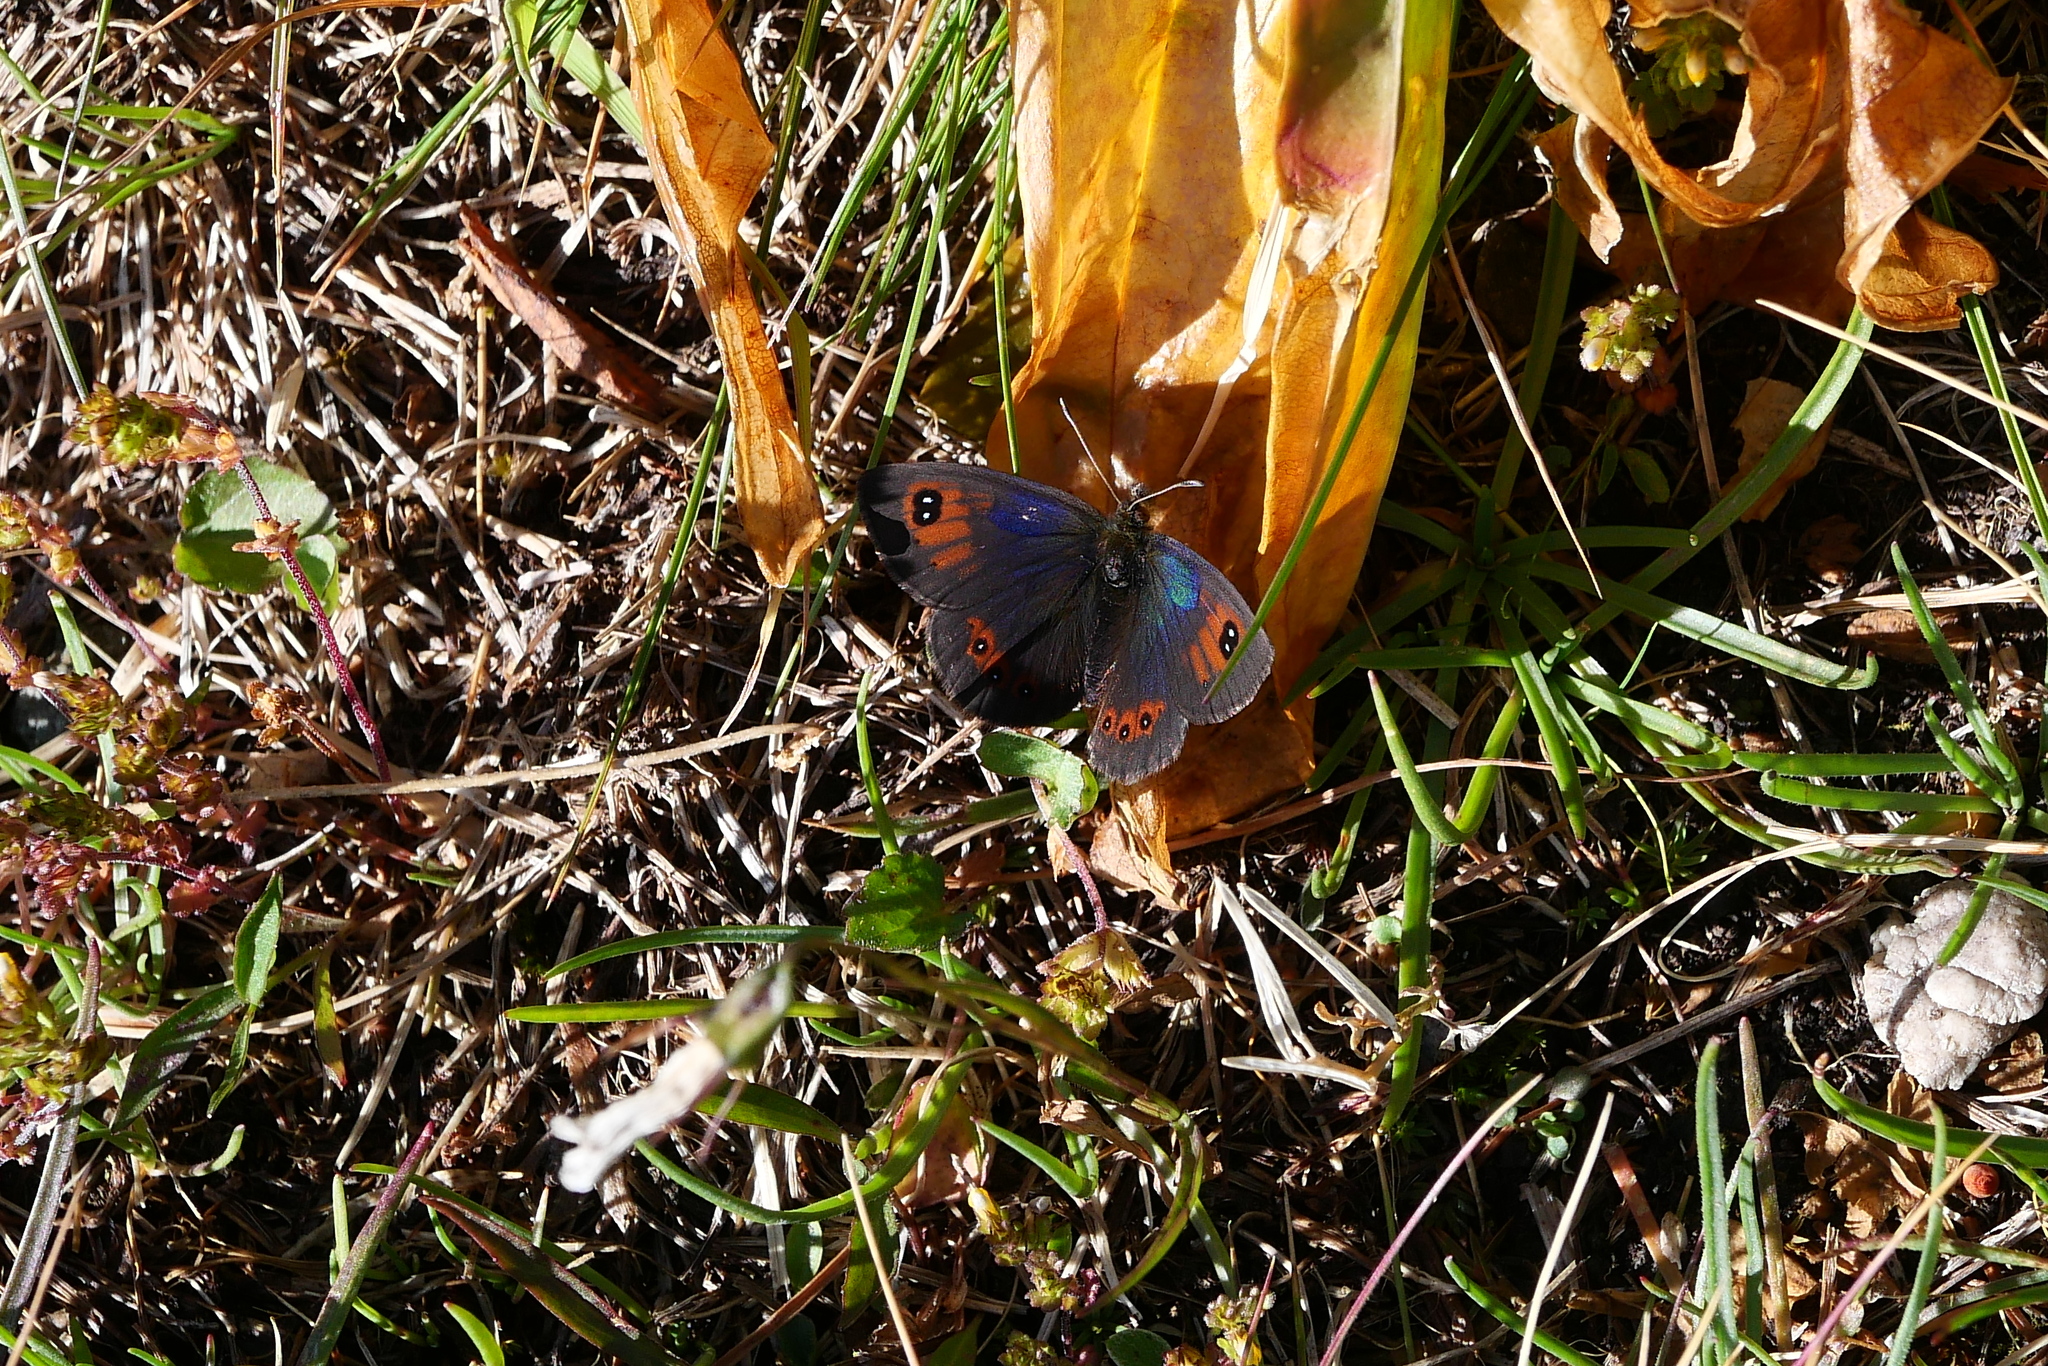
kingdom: Animalia
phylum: Arthropoda
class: Insecta
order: Lepidoptera
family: Nymphalidae
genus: Erebia
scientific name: Erebia cassioides
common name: Common brassy ringlet
